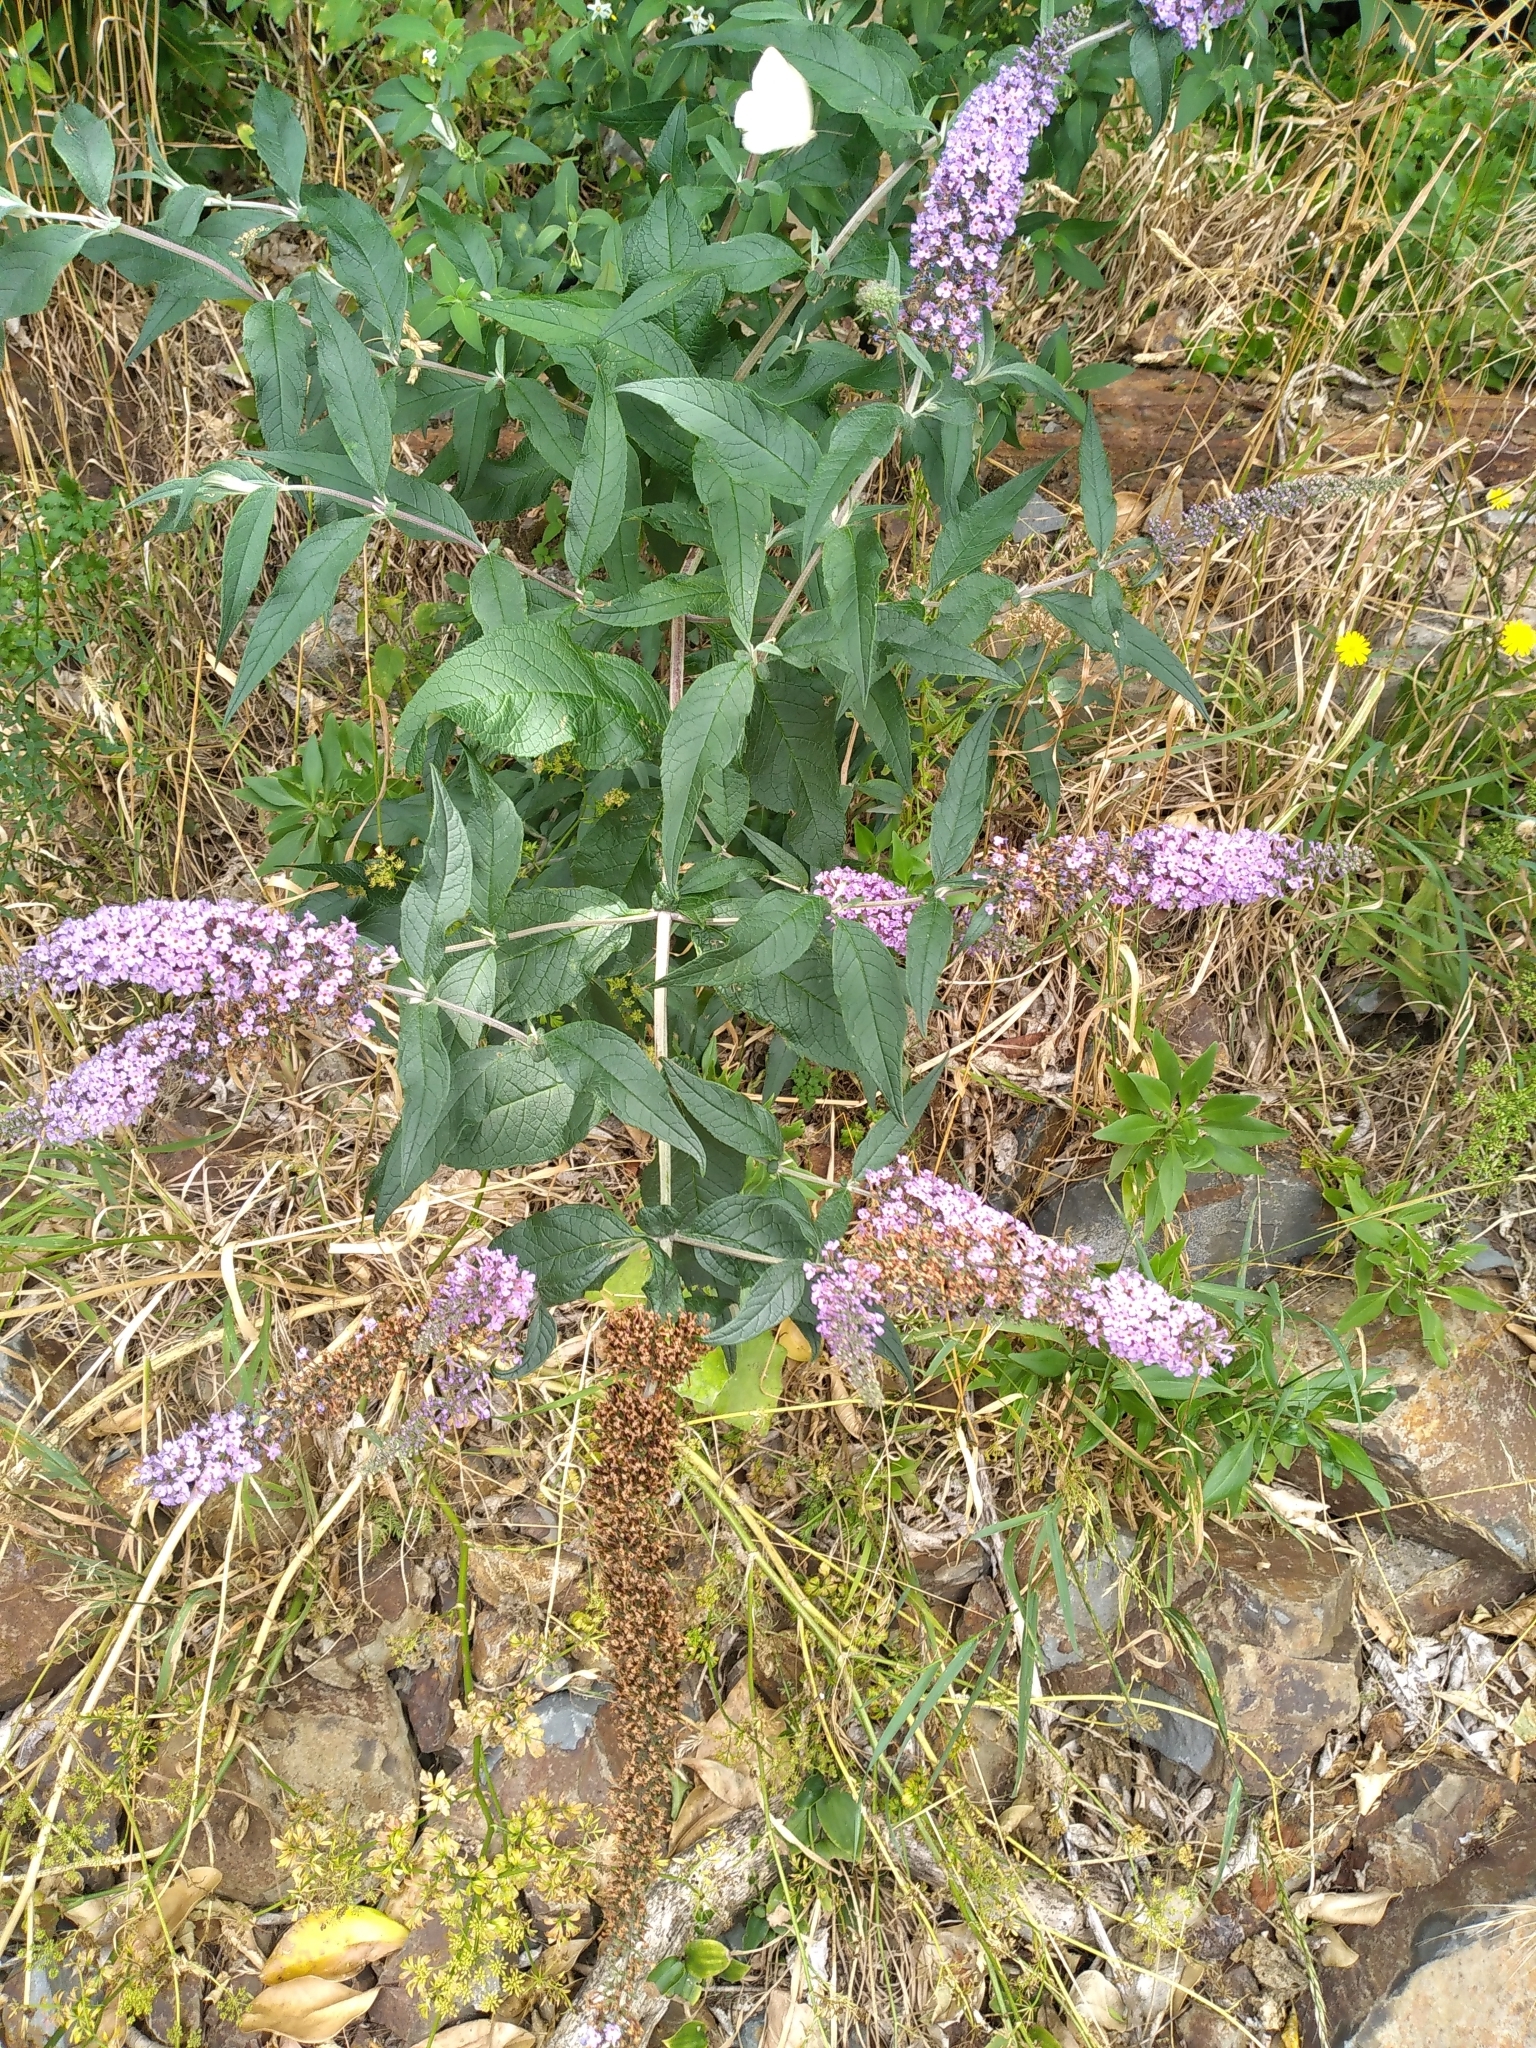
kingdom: Plantae
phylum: Tracheophyta
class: Magnoliopsida
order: Lamiales
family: Scrophulariaceae
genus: Buddleja
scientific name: Buddleja davidii
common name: Butterfly-bush
